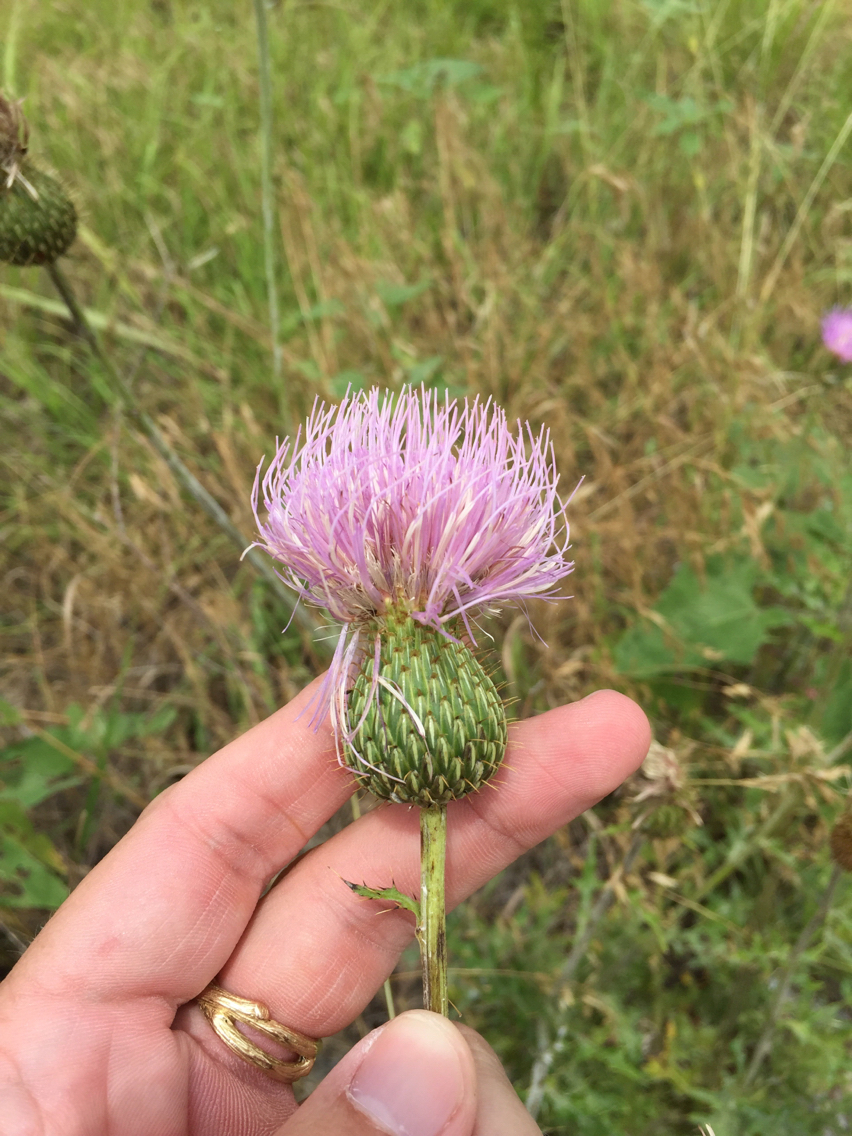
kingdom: Plantae
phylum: Tracheophyta
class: Magnoliopsida
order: Asterales
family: Asteraceae
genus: Cirsium
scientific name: Cirsium texanum
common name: Texas purple thistle
